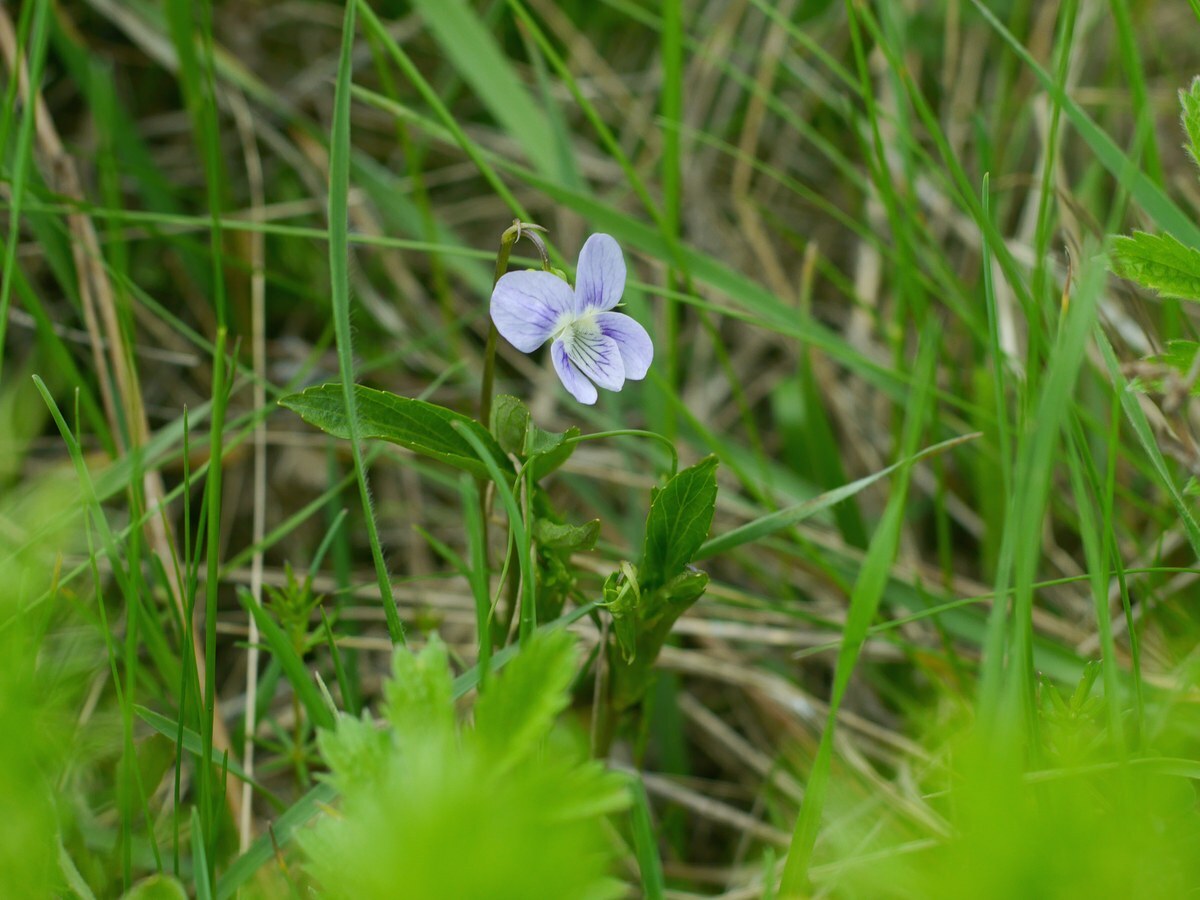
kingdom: Plantae
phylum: Tracheophyta
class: Magnoliopsida
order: Malpighiales
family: Violaceae
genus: Viola
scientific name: Viola pumila
